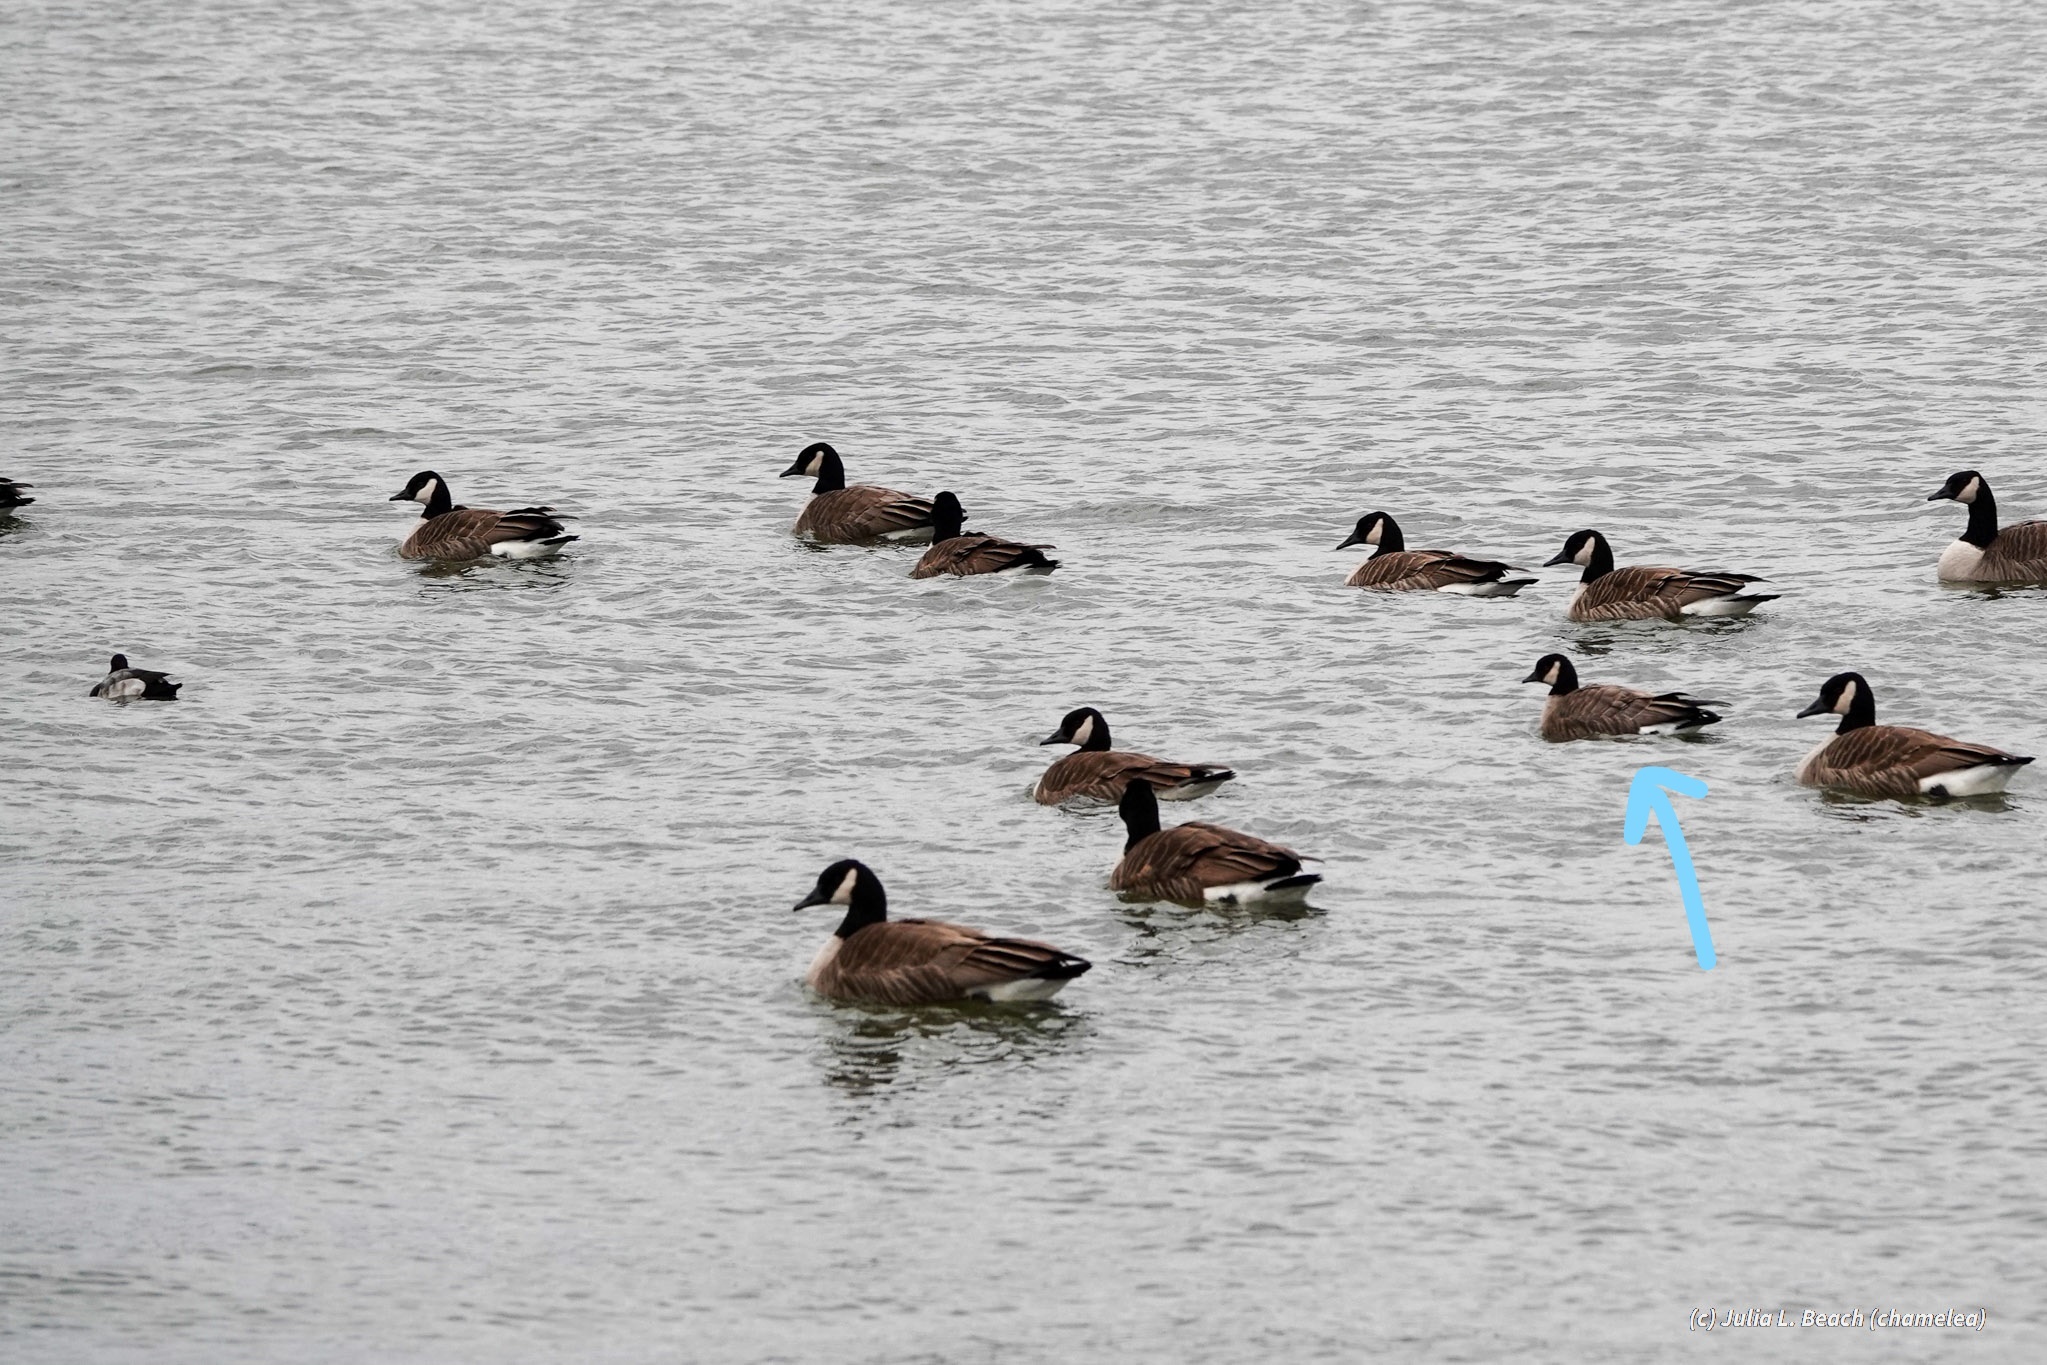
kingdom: Animalia
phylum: Chordata
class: Aves
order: Anseriformes
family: Anatidae
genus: Branta
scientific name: Branta hutchinsii
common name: Cackling goose
